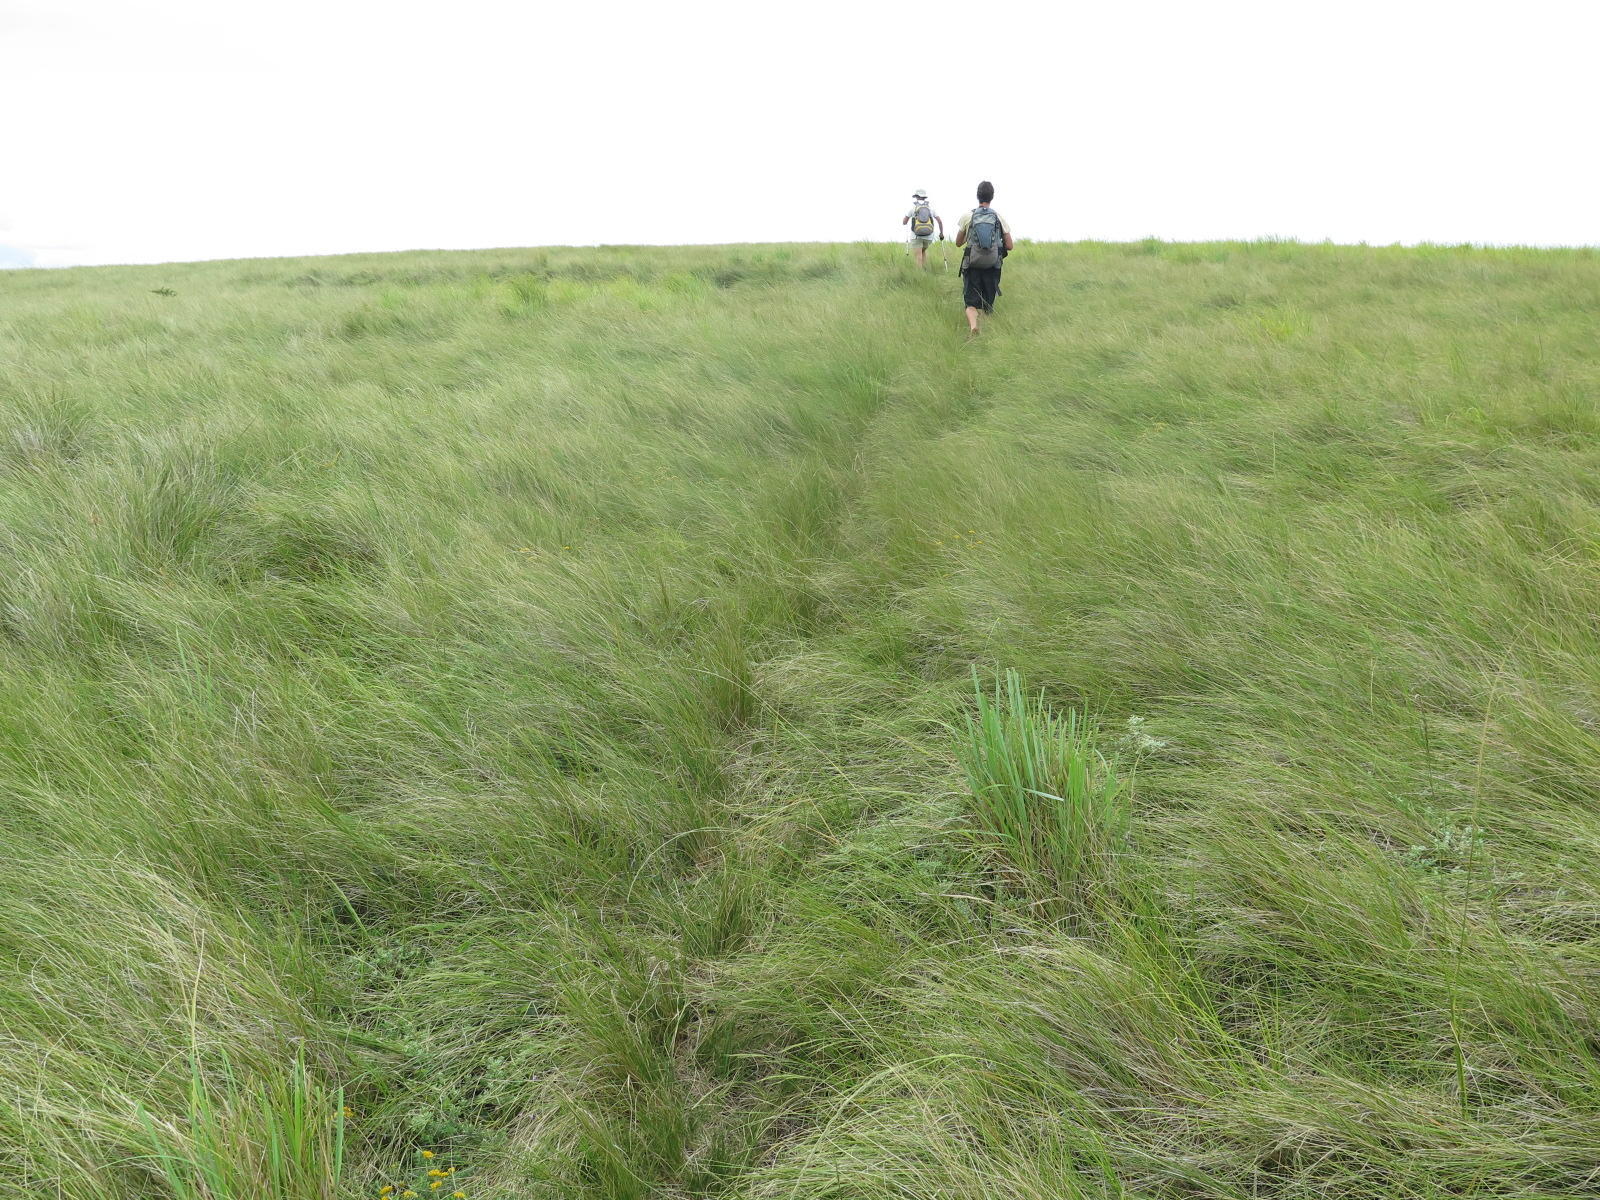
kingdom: Plantae
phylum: Tracheophyta
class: Liliopsida
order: Poales
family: Poaceae
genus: Aristida
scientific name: Aristida junciformis
